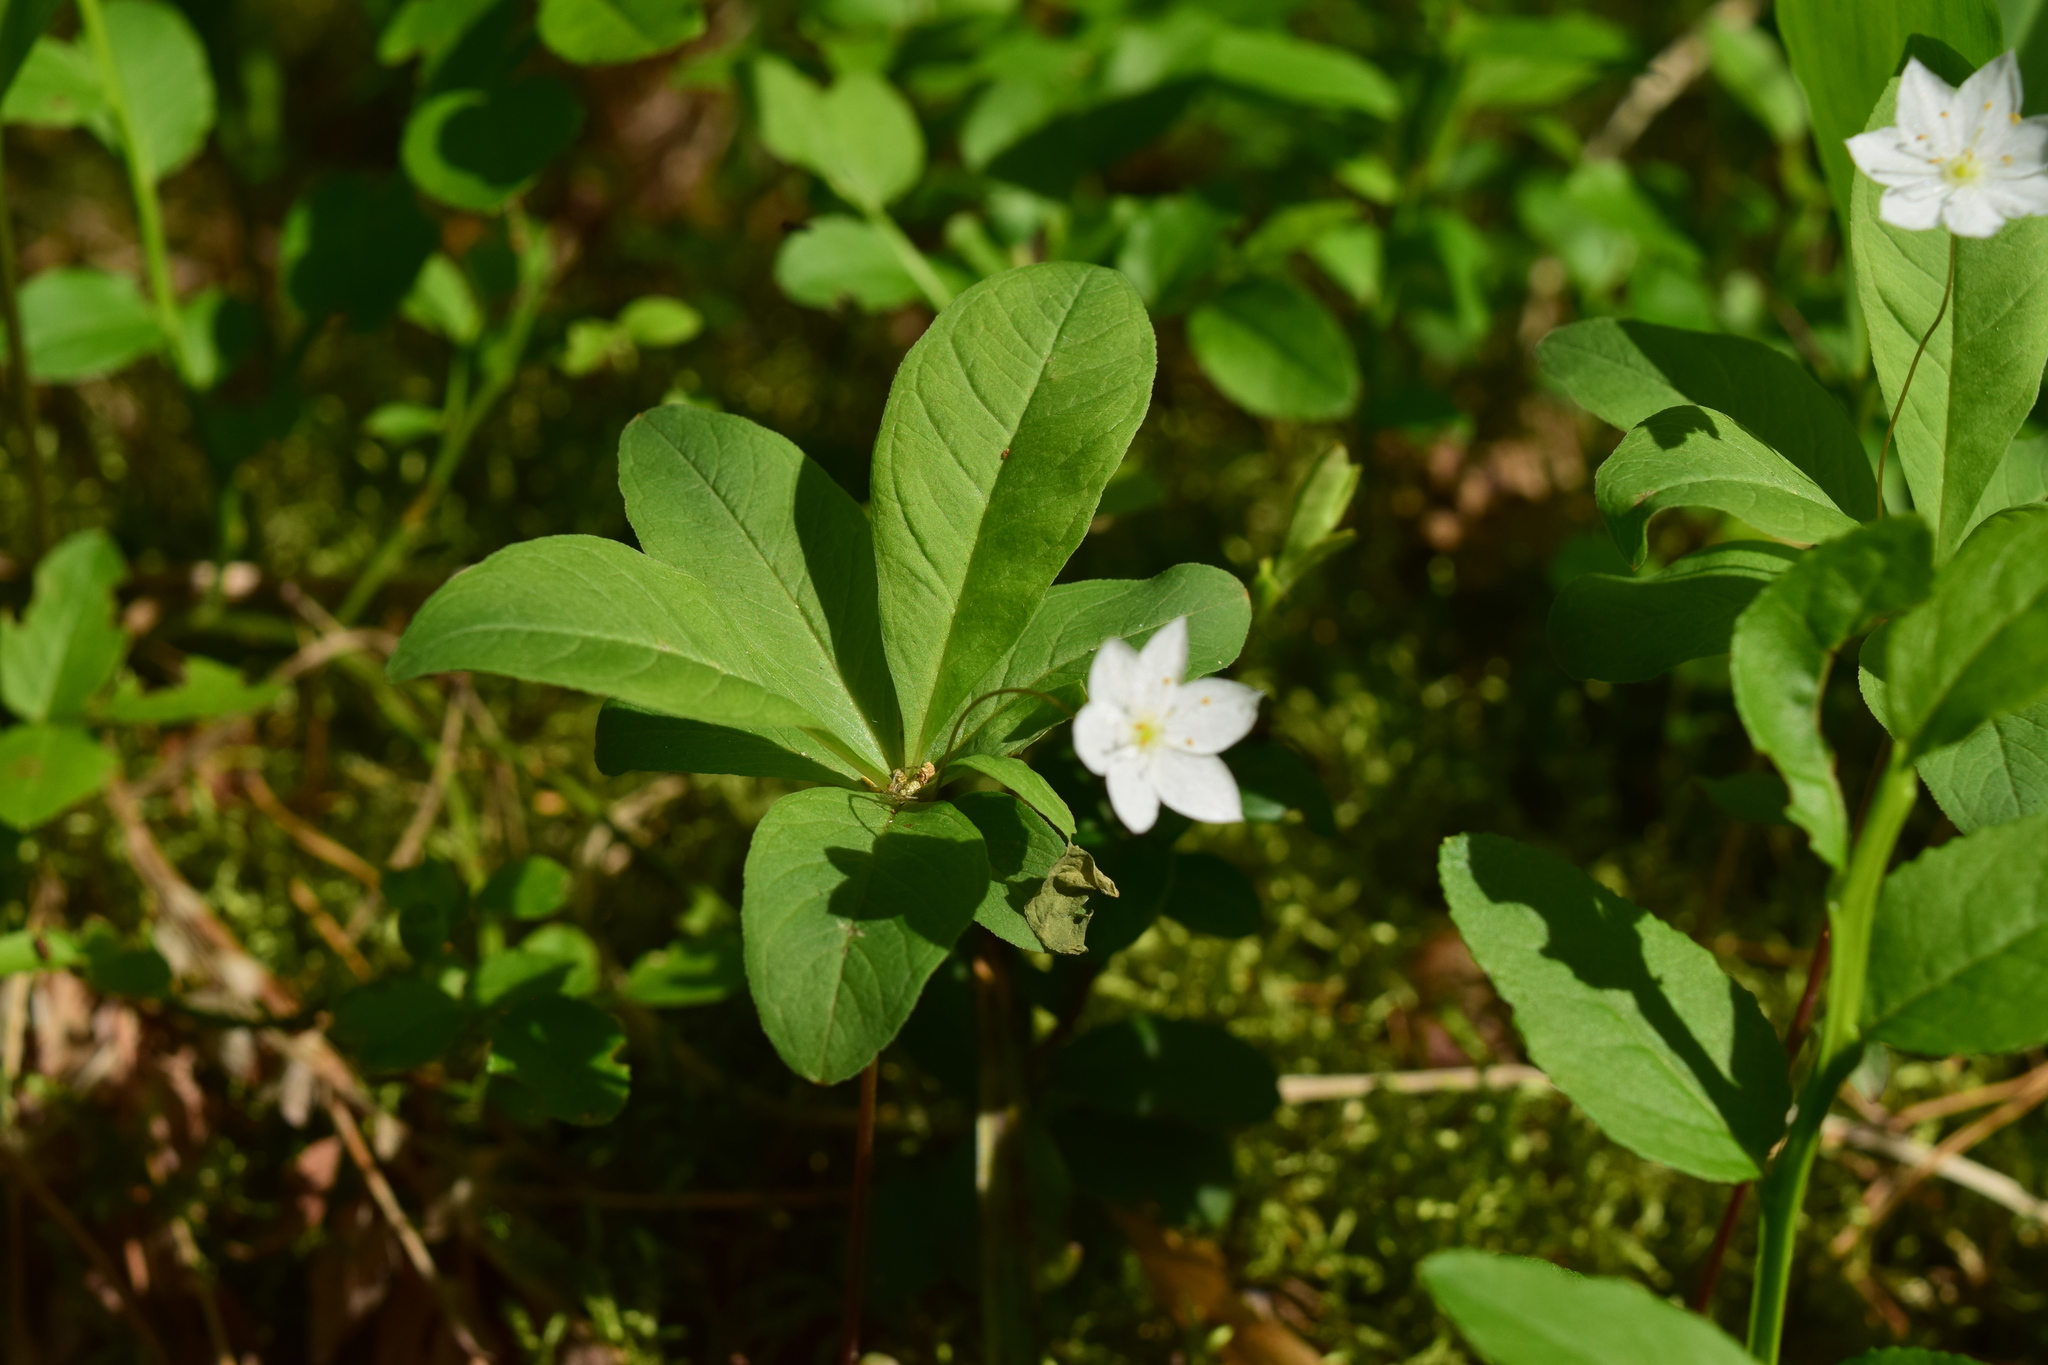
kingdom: Plantae
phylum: Tracheophyta
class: Magnoliopsida
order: Ericales
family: Primulaceae
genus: Lysimachia
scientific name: Lysimachia europaea
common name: Arctic starflower
